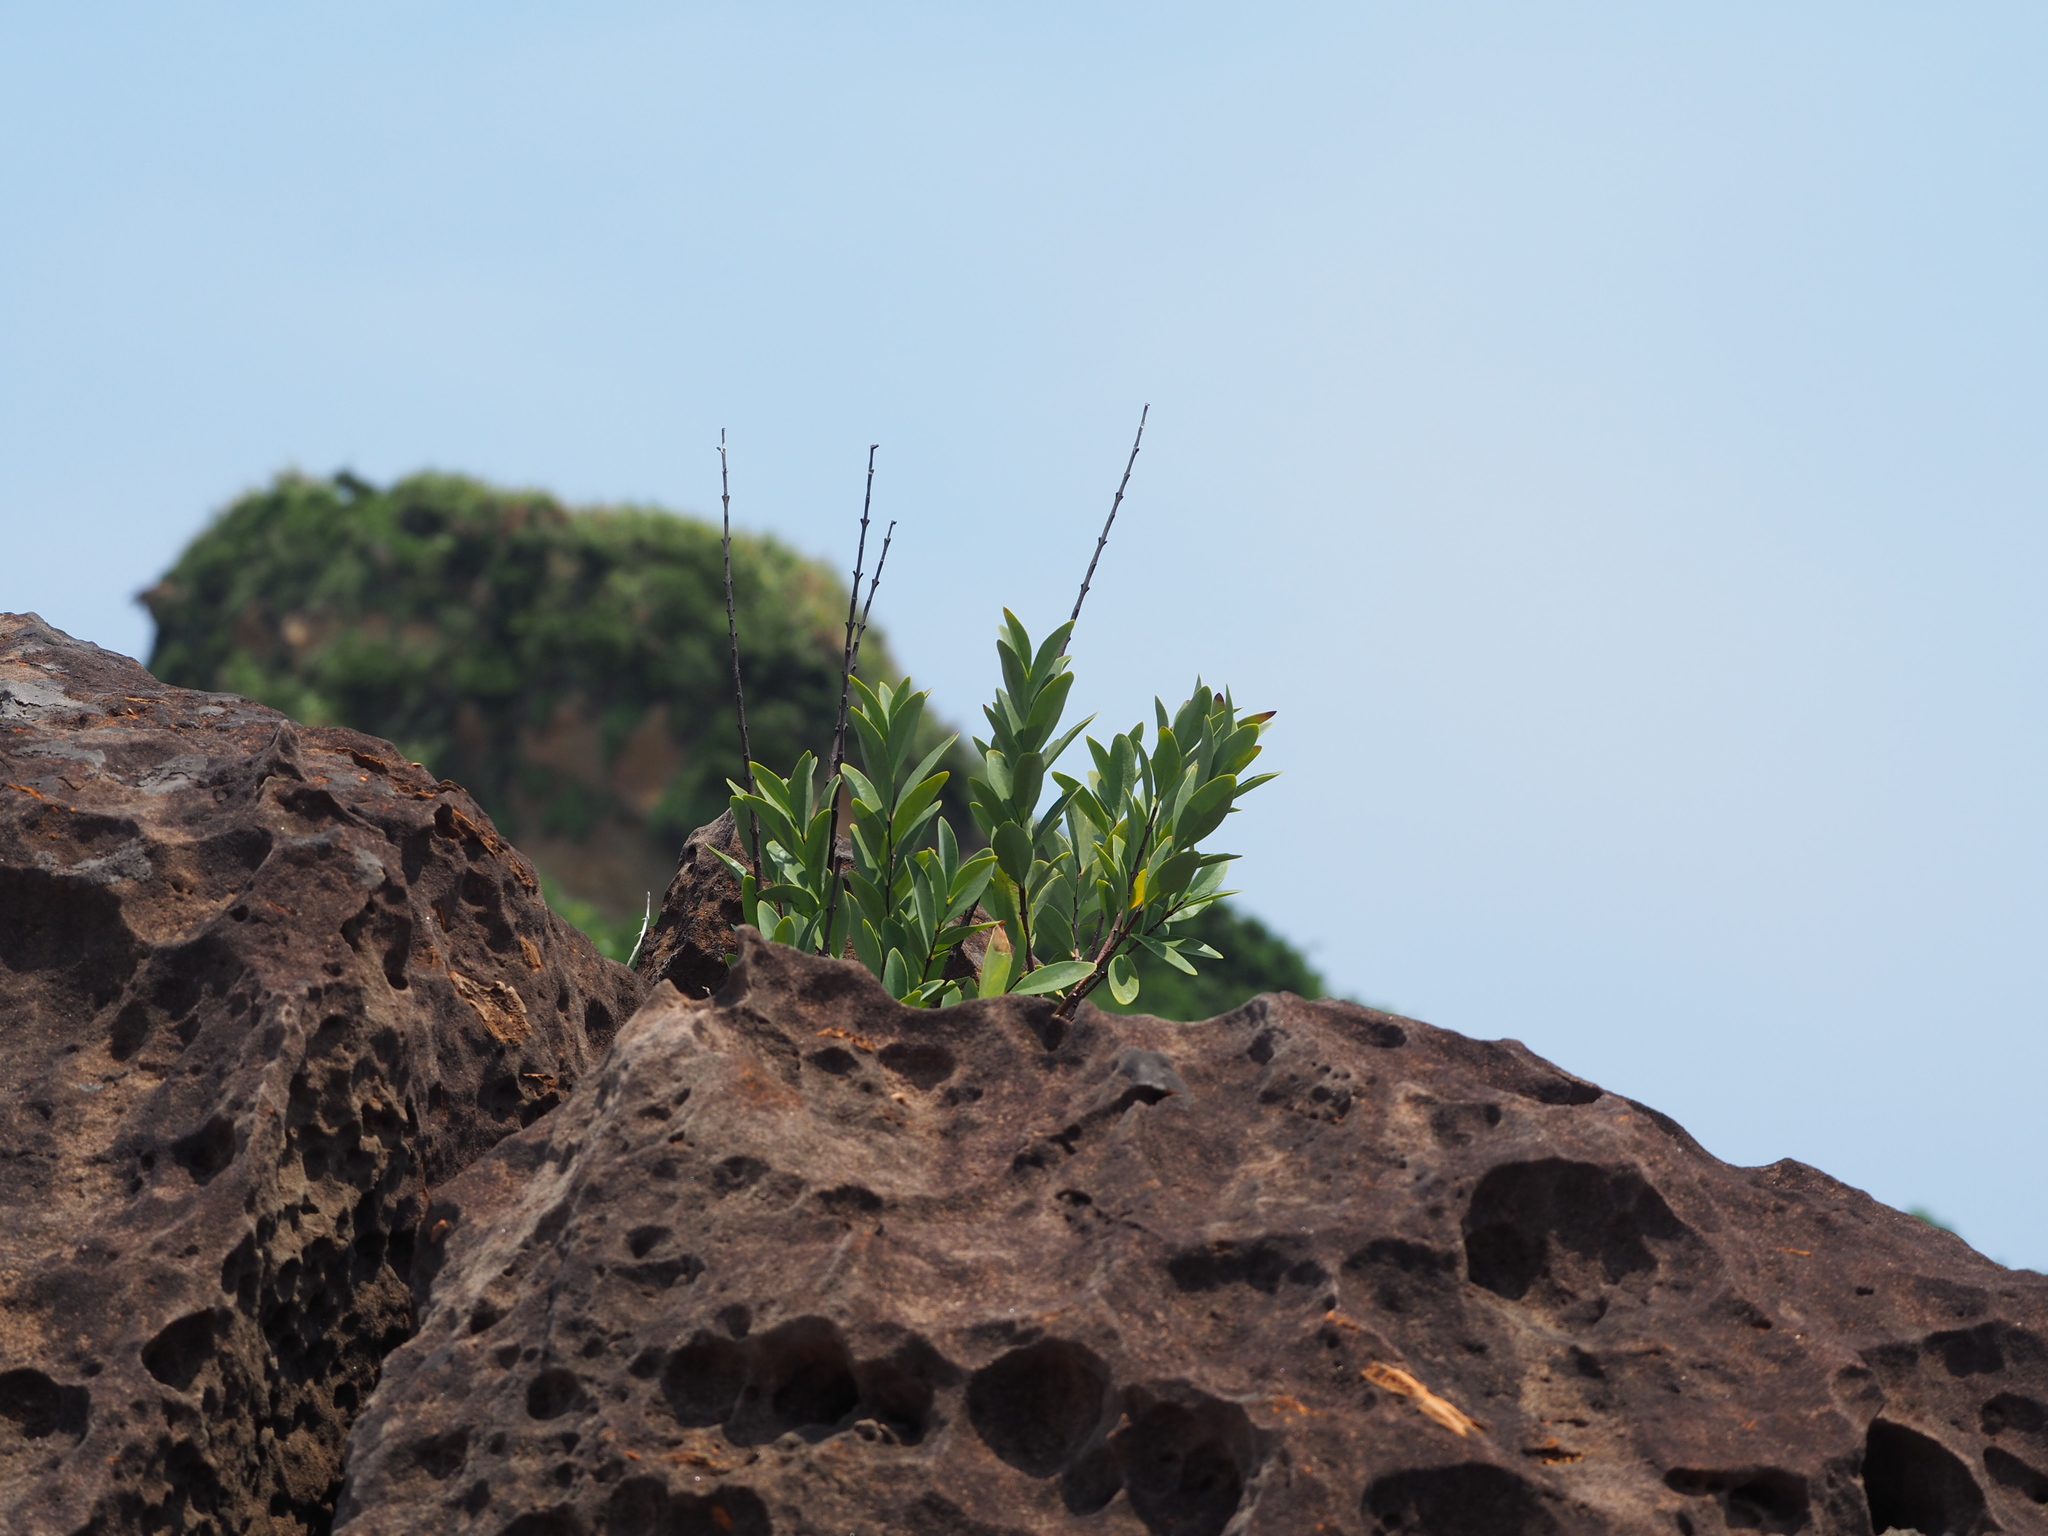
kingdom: Plantae
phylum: Tracheophyta
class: Magnoliopsida
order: Malvales
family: Thymelaeaceae
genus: Wikstroemia
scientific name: Wikstroemia indica
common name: Tiebush
